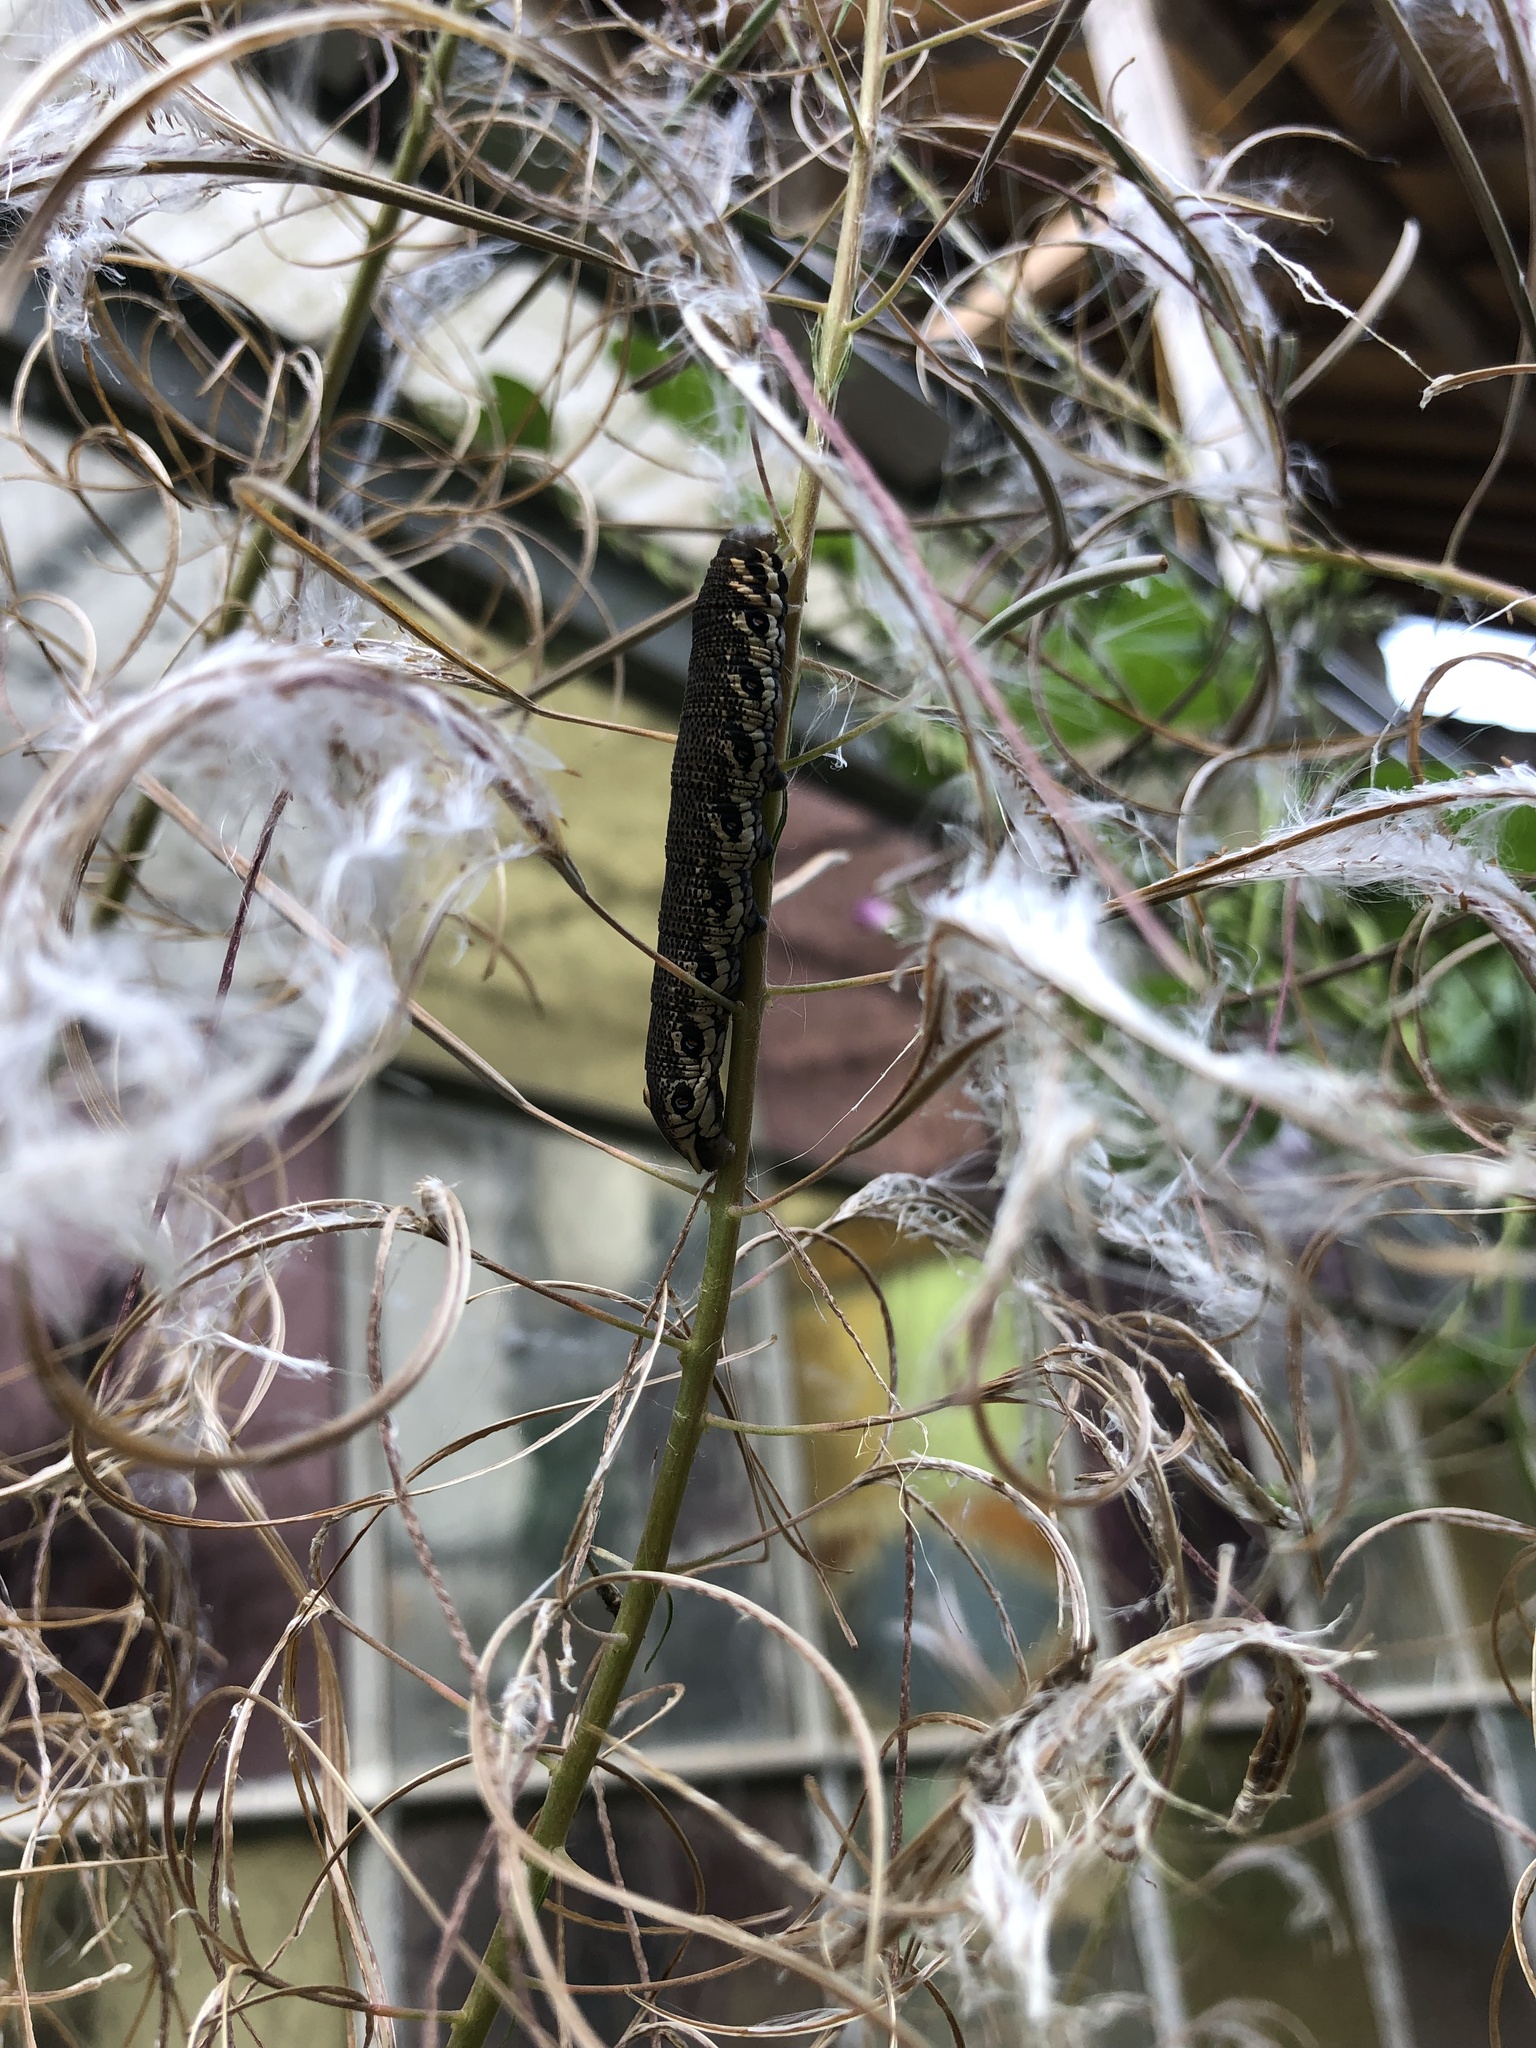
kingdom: Animalia
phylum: Arthropoda
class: Insecta
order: Lepidoptera
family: Sphingidae
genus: Proserpinus
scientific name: Proserpinus proserpina
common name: Willowherb hawkmoth
